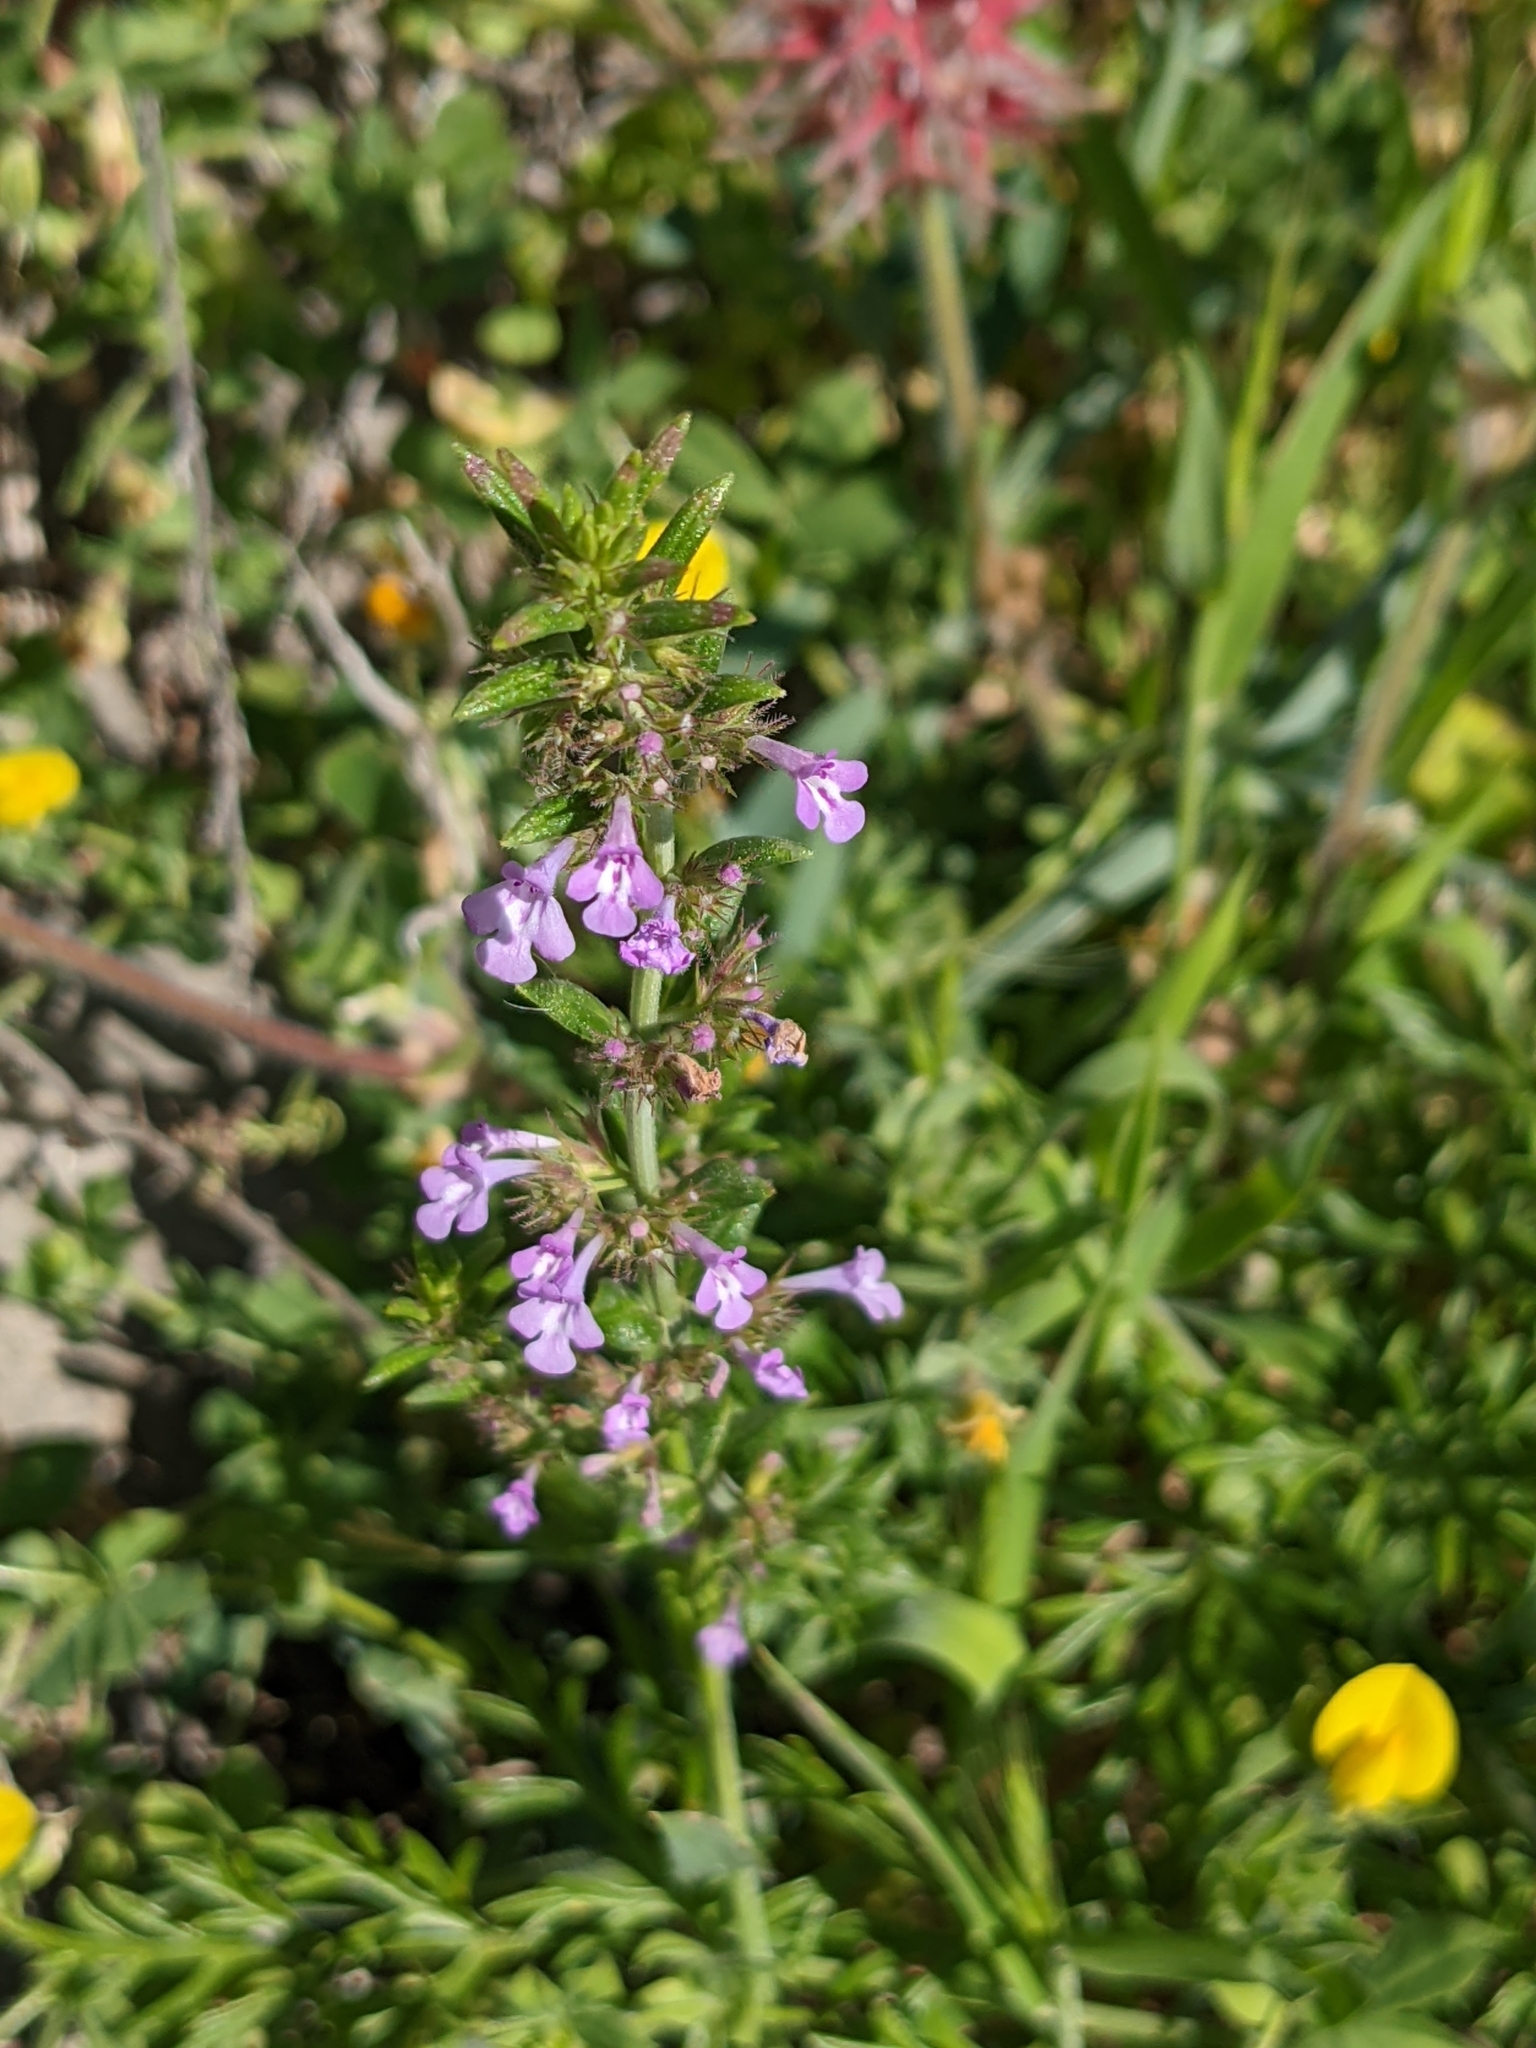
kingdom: Plantae
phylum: Tracheophyta
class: Magnoliopsida
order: Lamiales
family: Lamiaceae
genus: Micromeria
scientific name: Micromeria graeca
